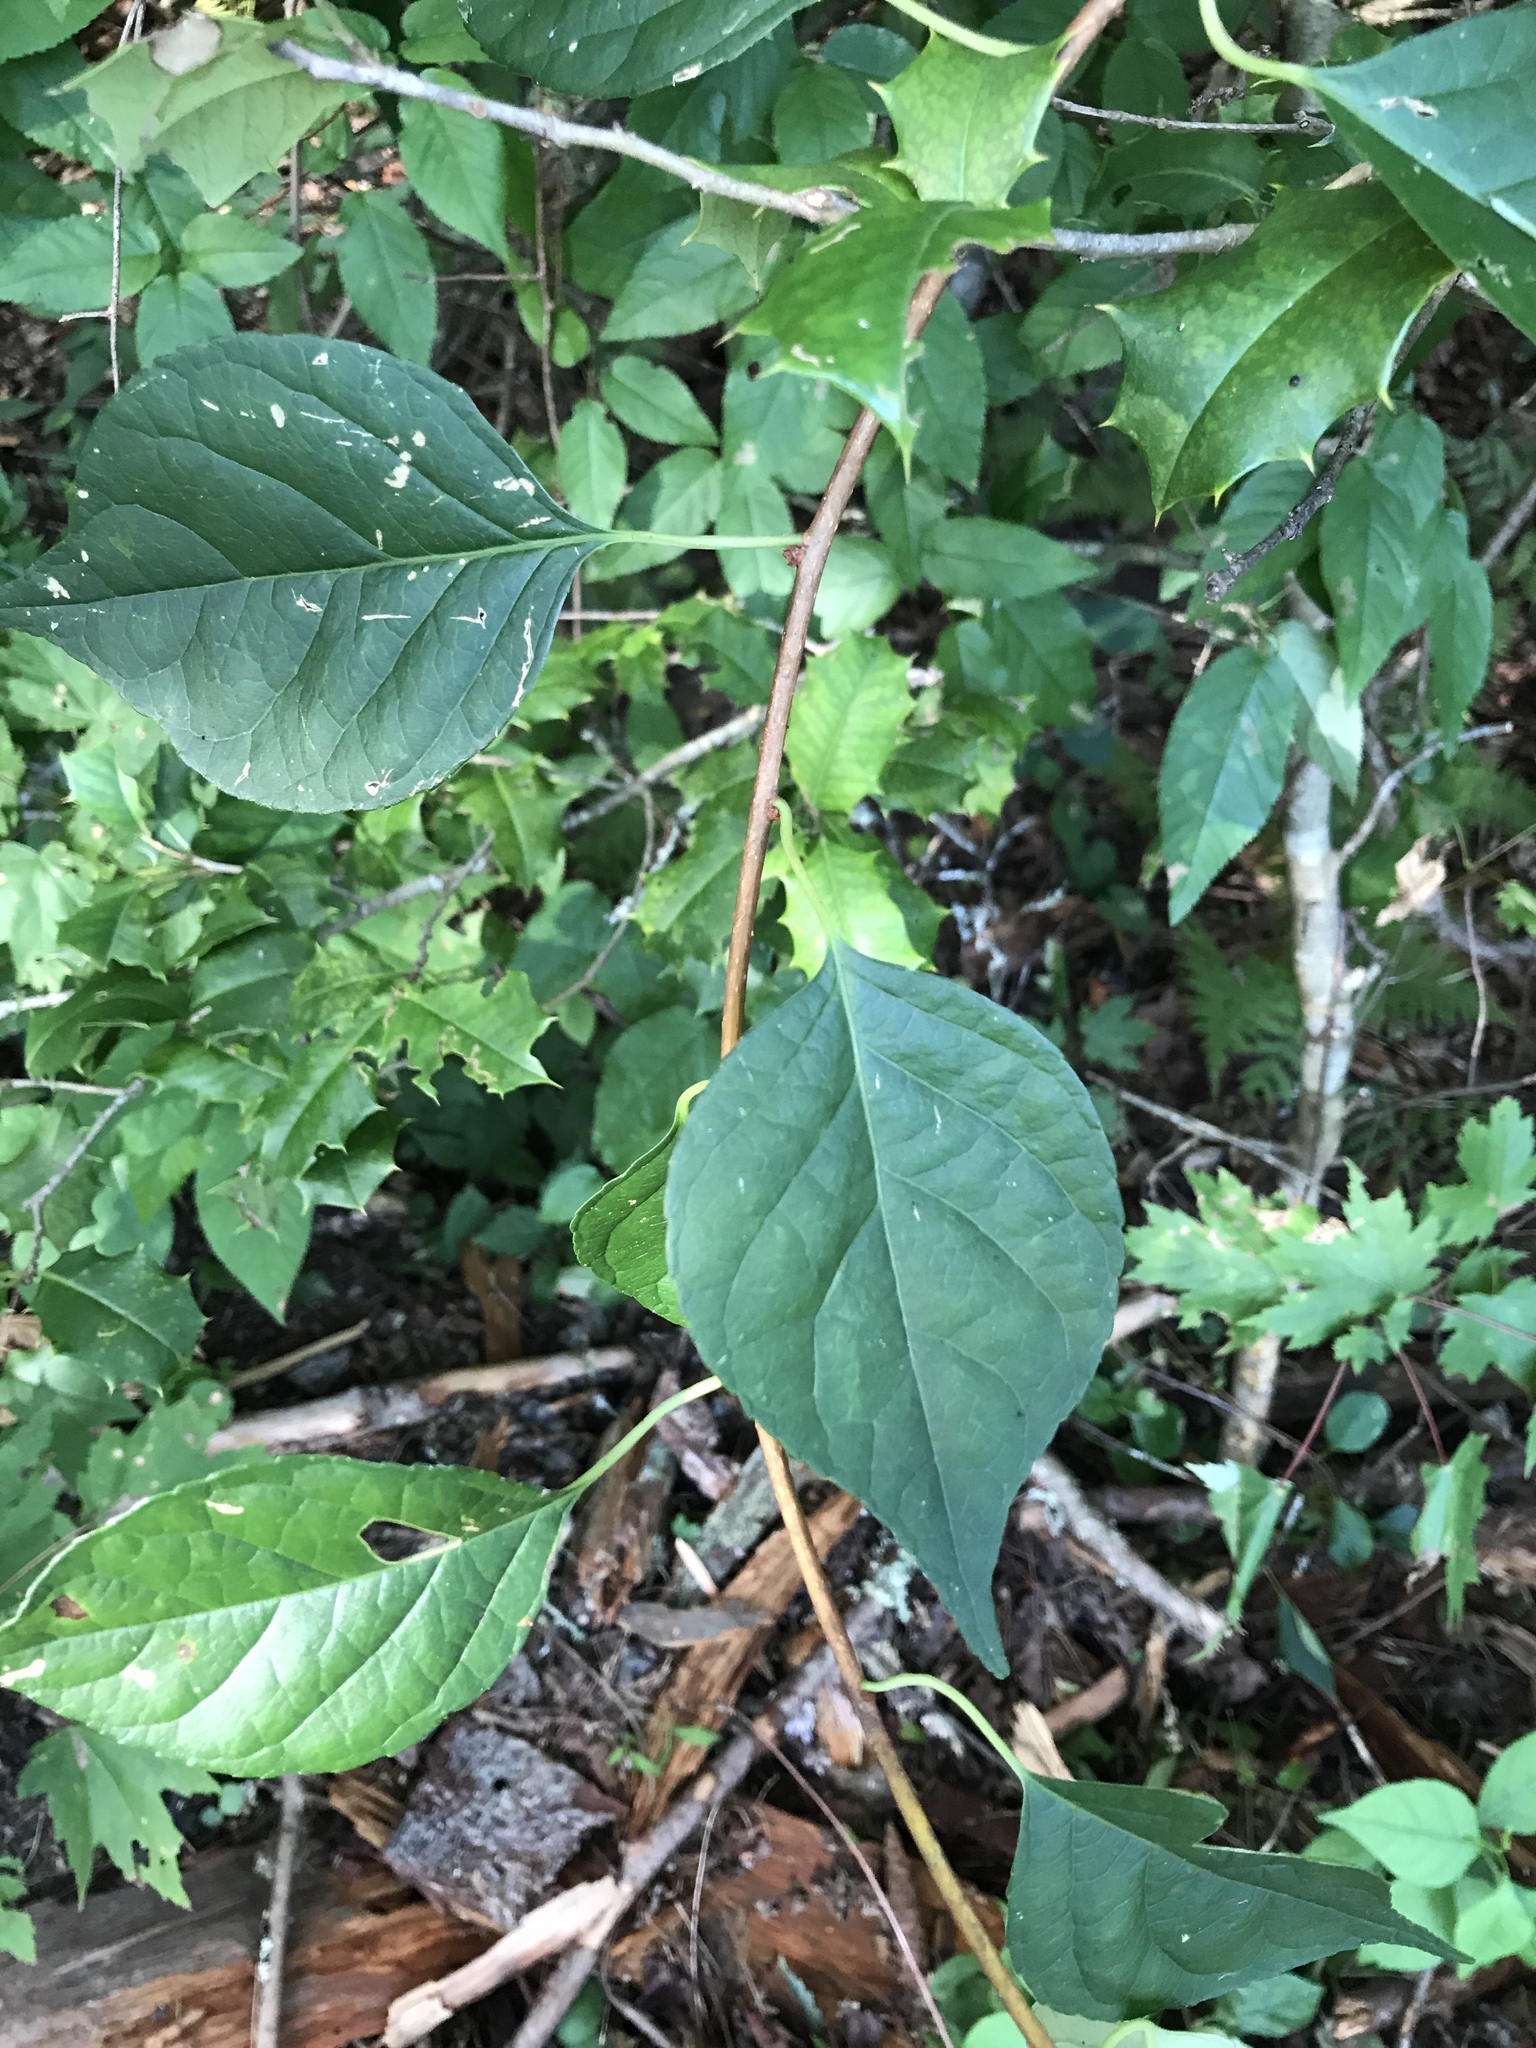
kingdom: Plantae
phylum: Tracheophyta
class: Magnoliopsida
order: Celastrales
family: Celastraceae
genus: Celastrus
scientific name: Celastrus orbiculatus
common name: Oriental bittersweet
